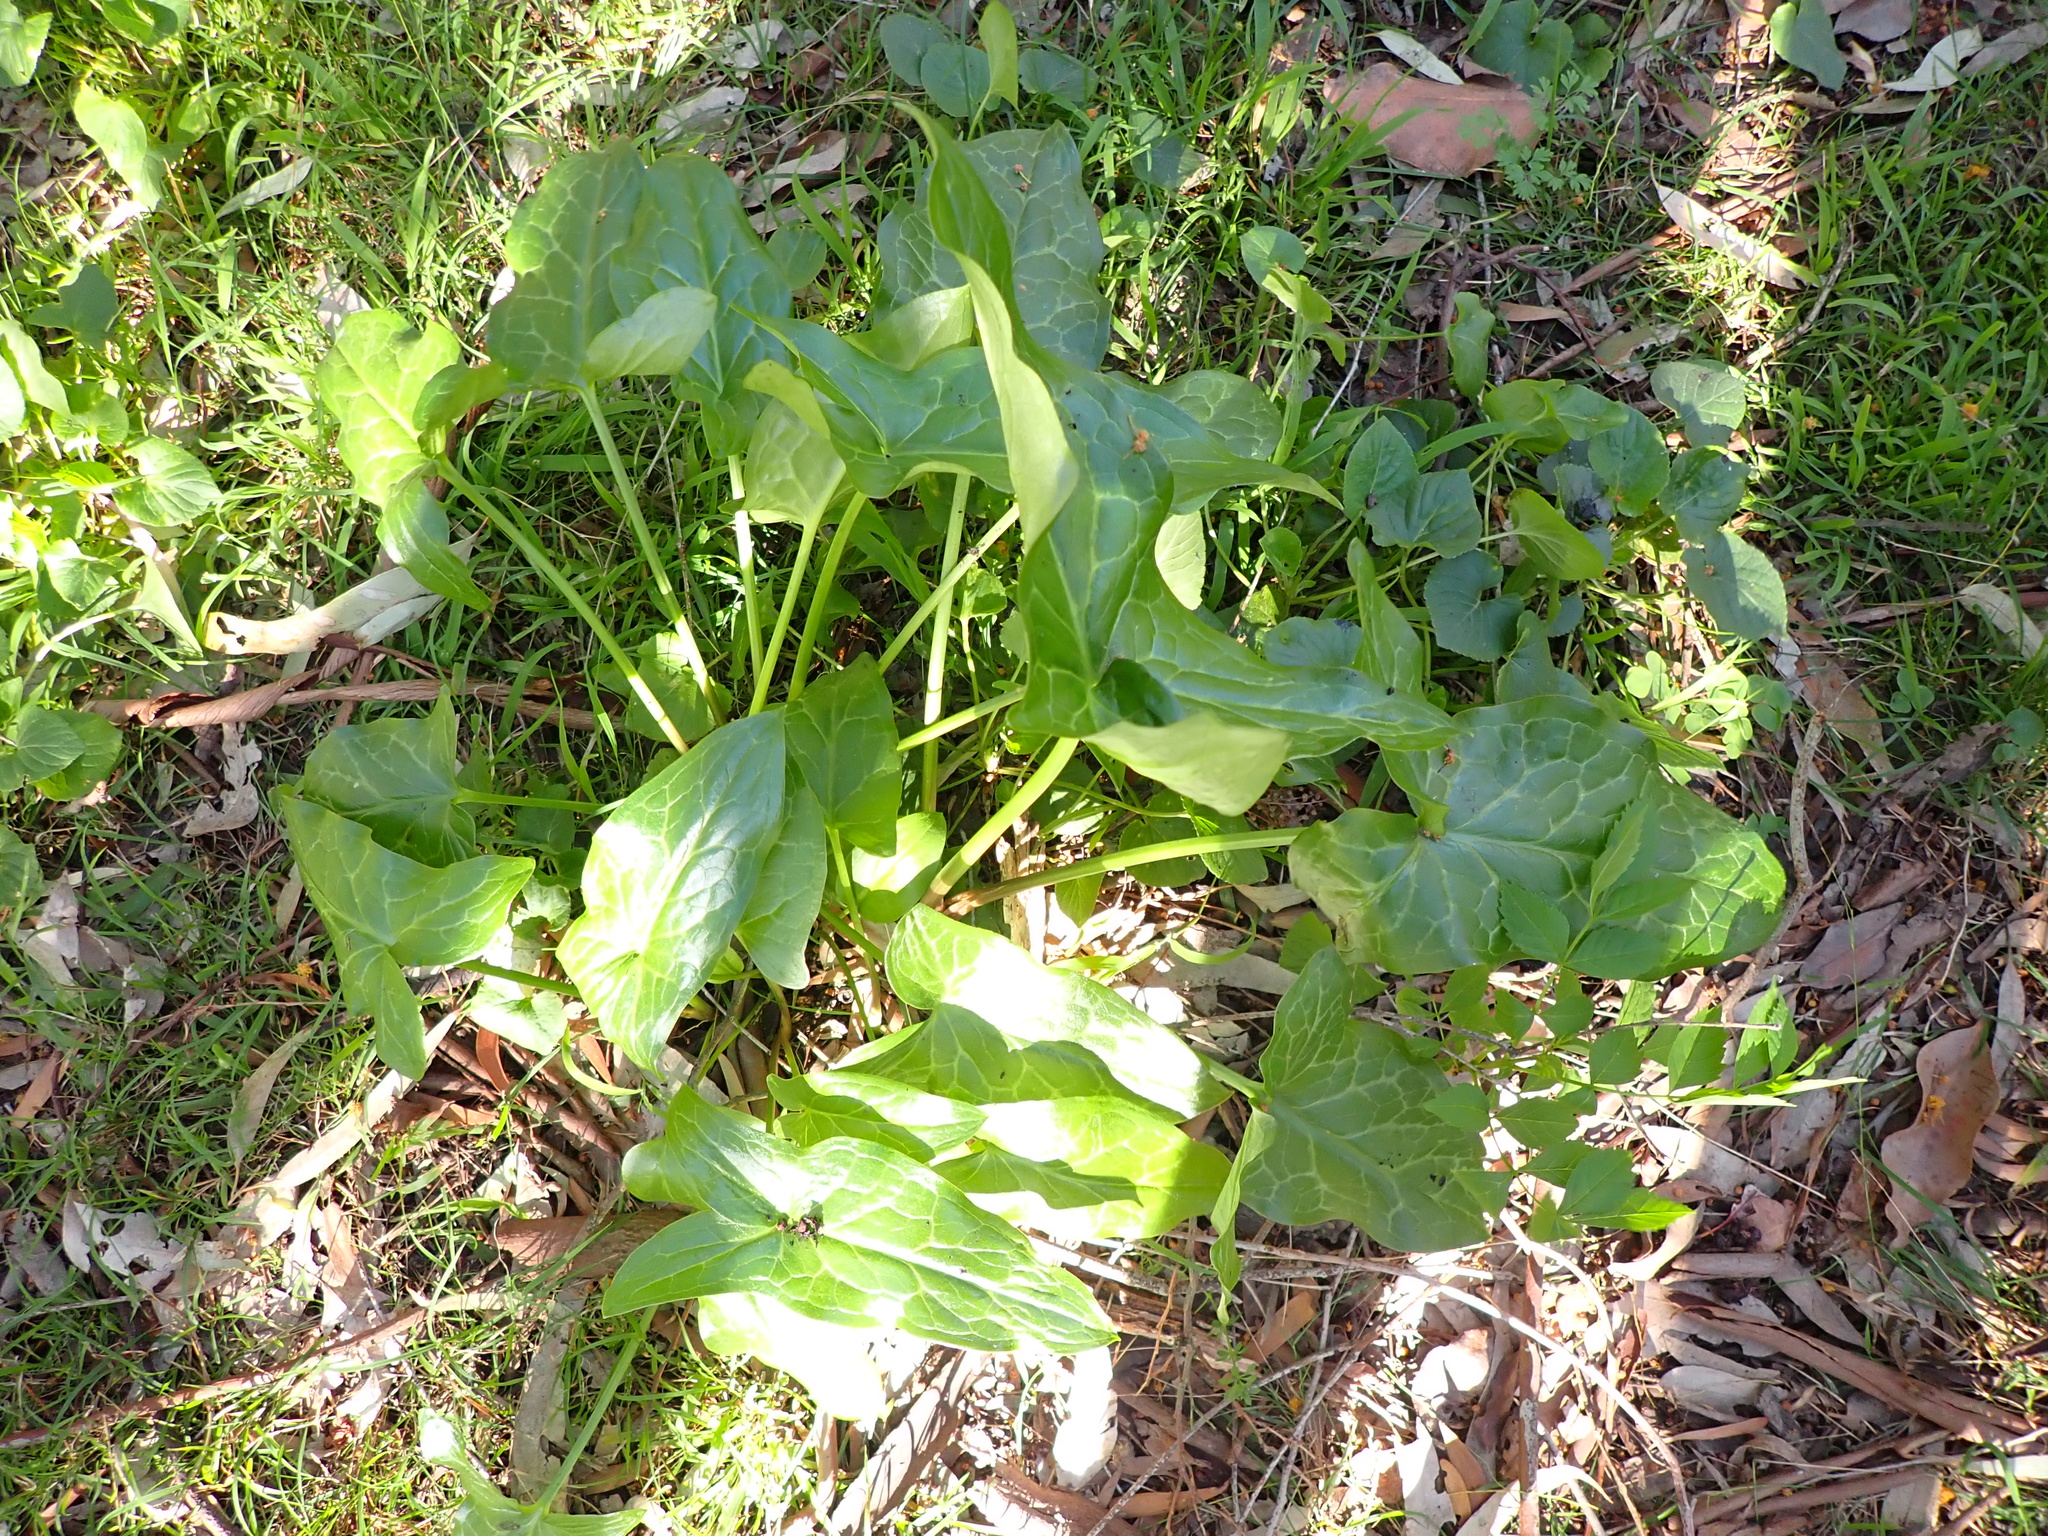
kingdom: Plantae
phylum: Tracheophyta
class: Liliopsida
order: Alismatales
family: Araceae
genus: Arum
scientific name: Arum italicum
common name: Italian lords-and-ladies
